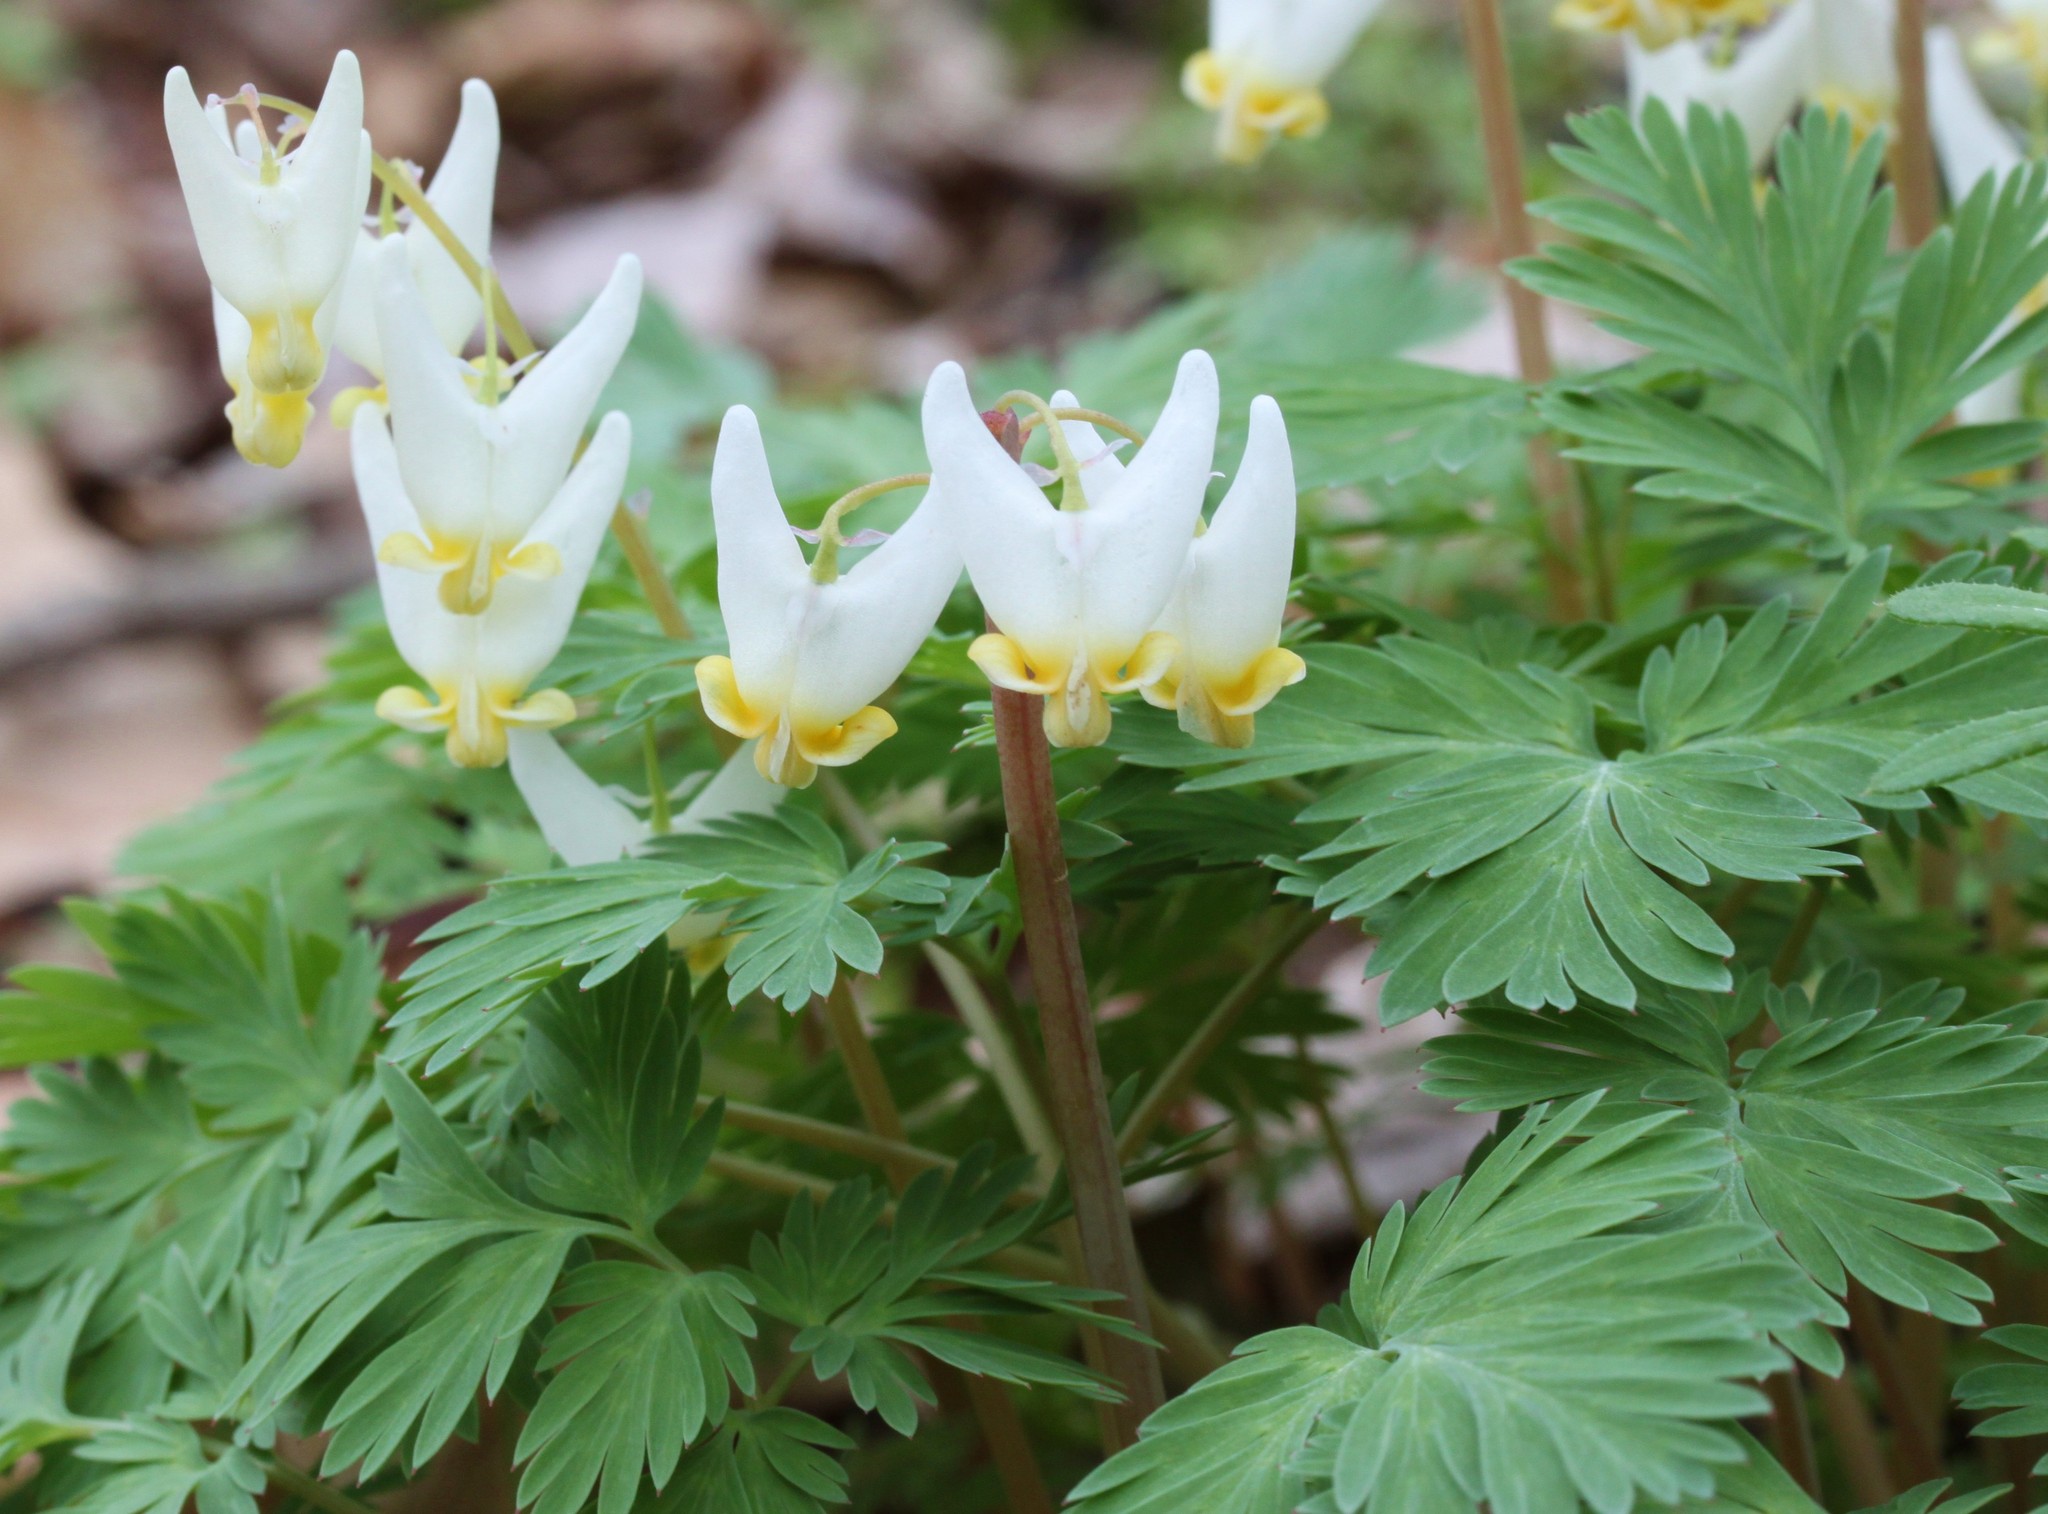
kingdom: Plantae
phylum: Tracheophyta
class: Magnoliopsida
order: Ranunculales
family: Papaveraceae
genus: Dicentra
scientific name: Dicentra cucullaria
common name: Dutchman's breeches
